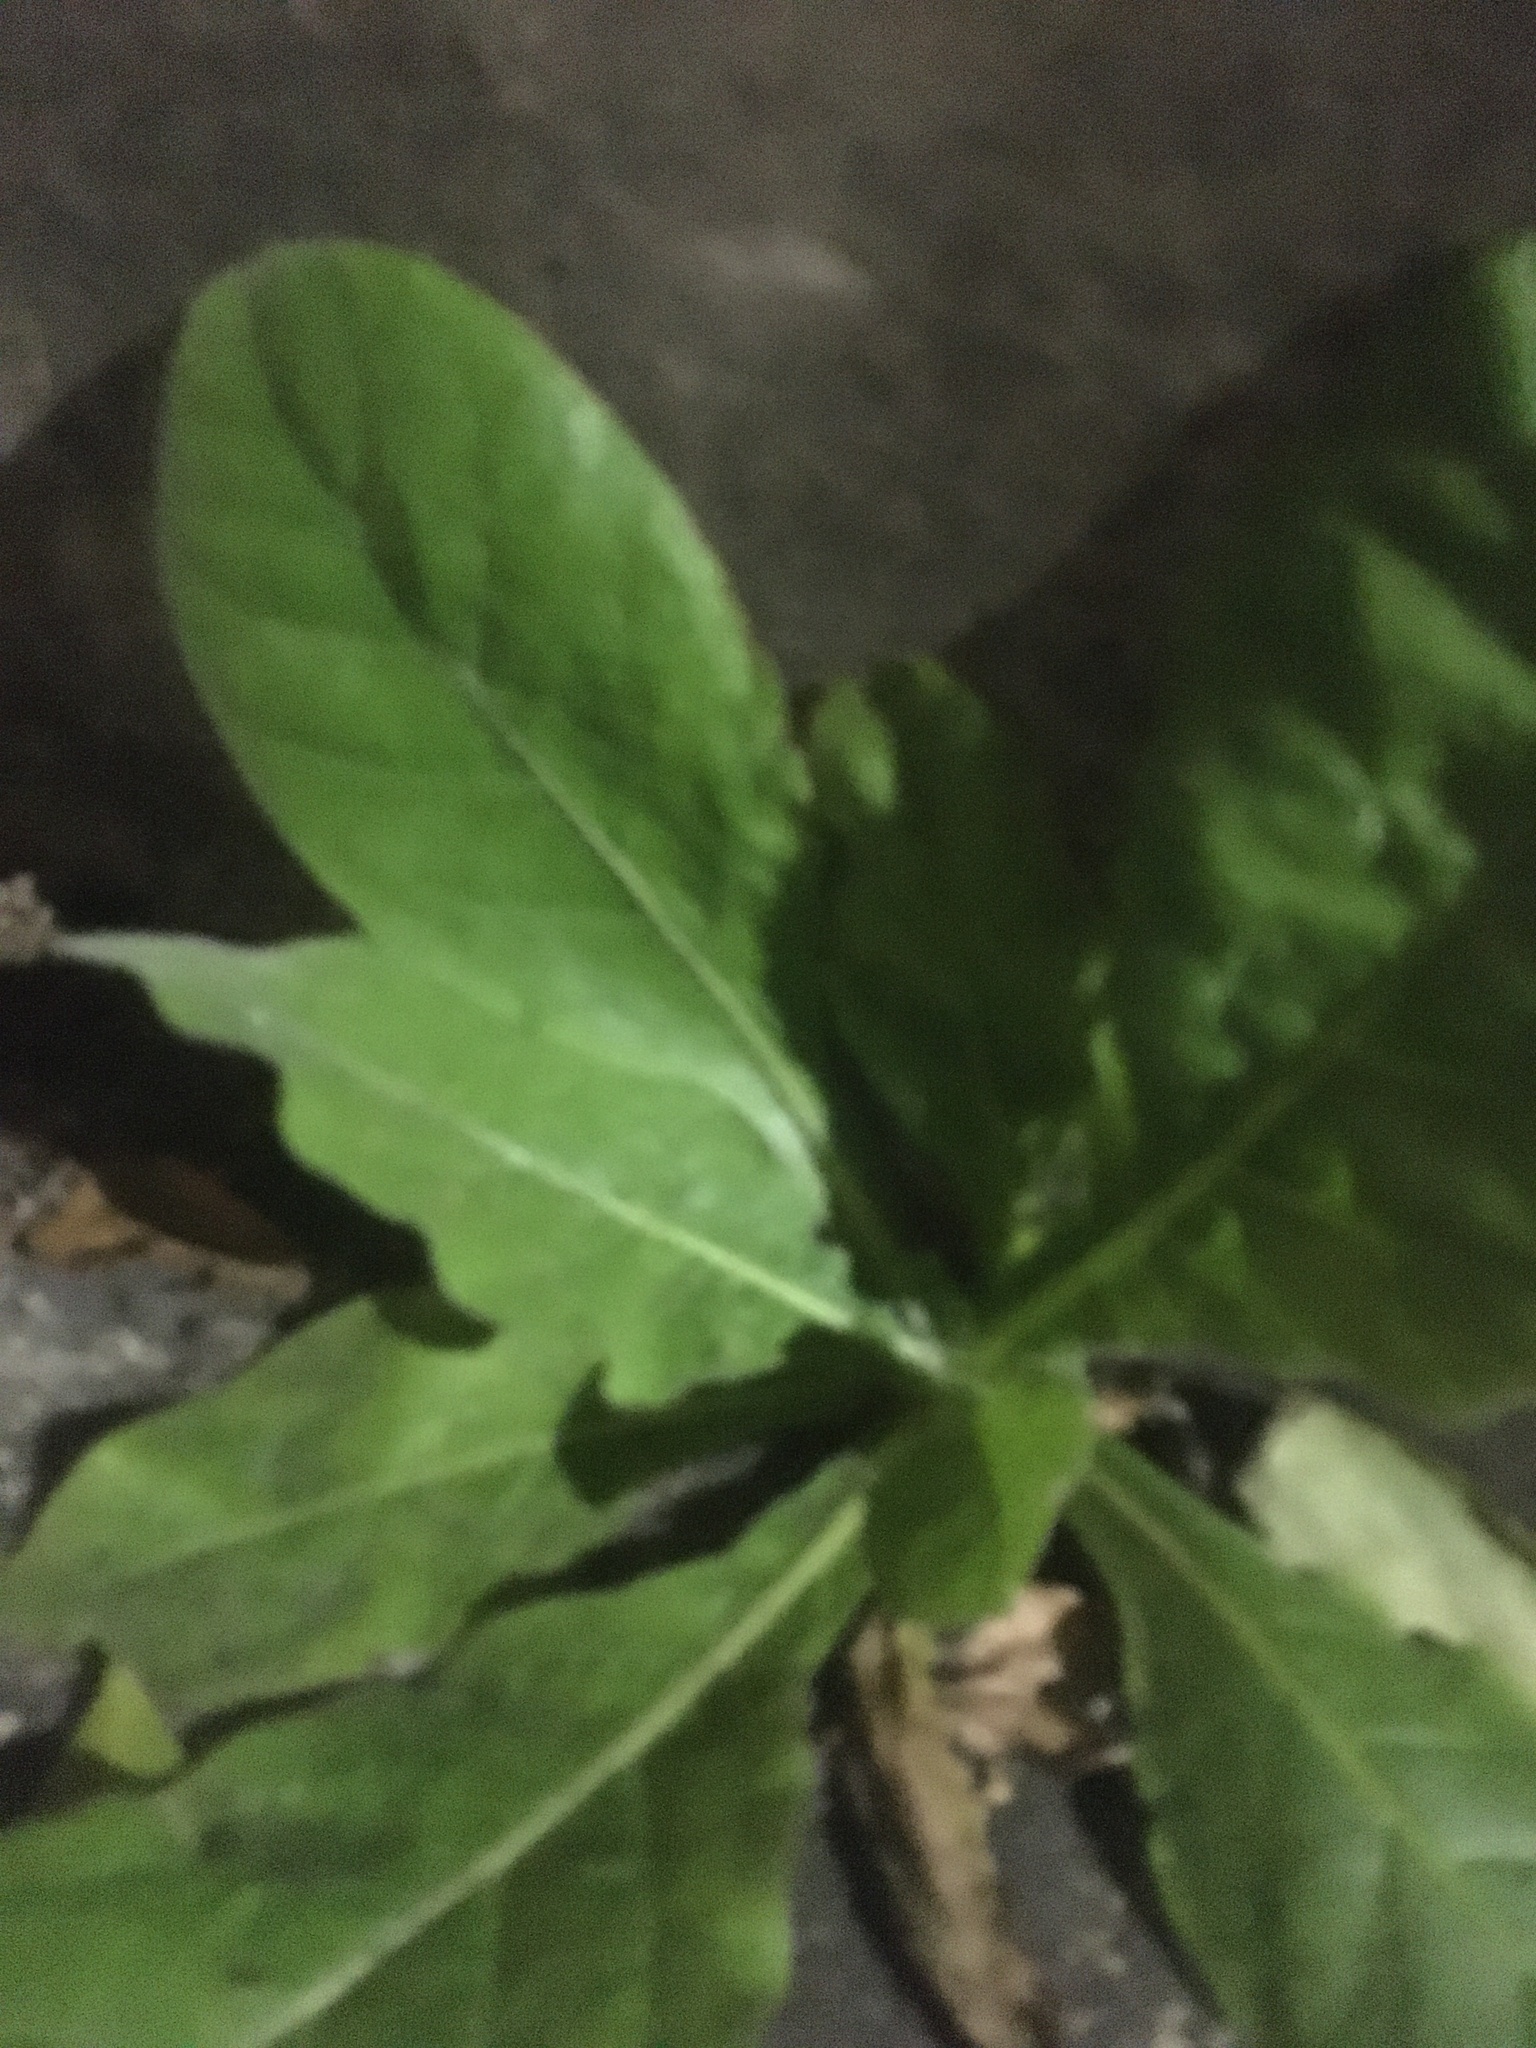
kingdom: Plantae
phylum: Tracheophyta
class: Magnoliopsida
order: Solanales
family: Solanaceae
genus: Nicotiana
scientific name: Nicotiana plumbaginifolia
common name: Tex-mex tobacco
